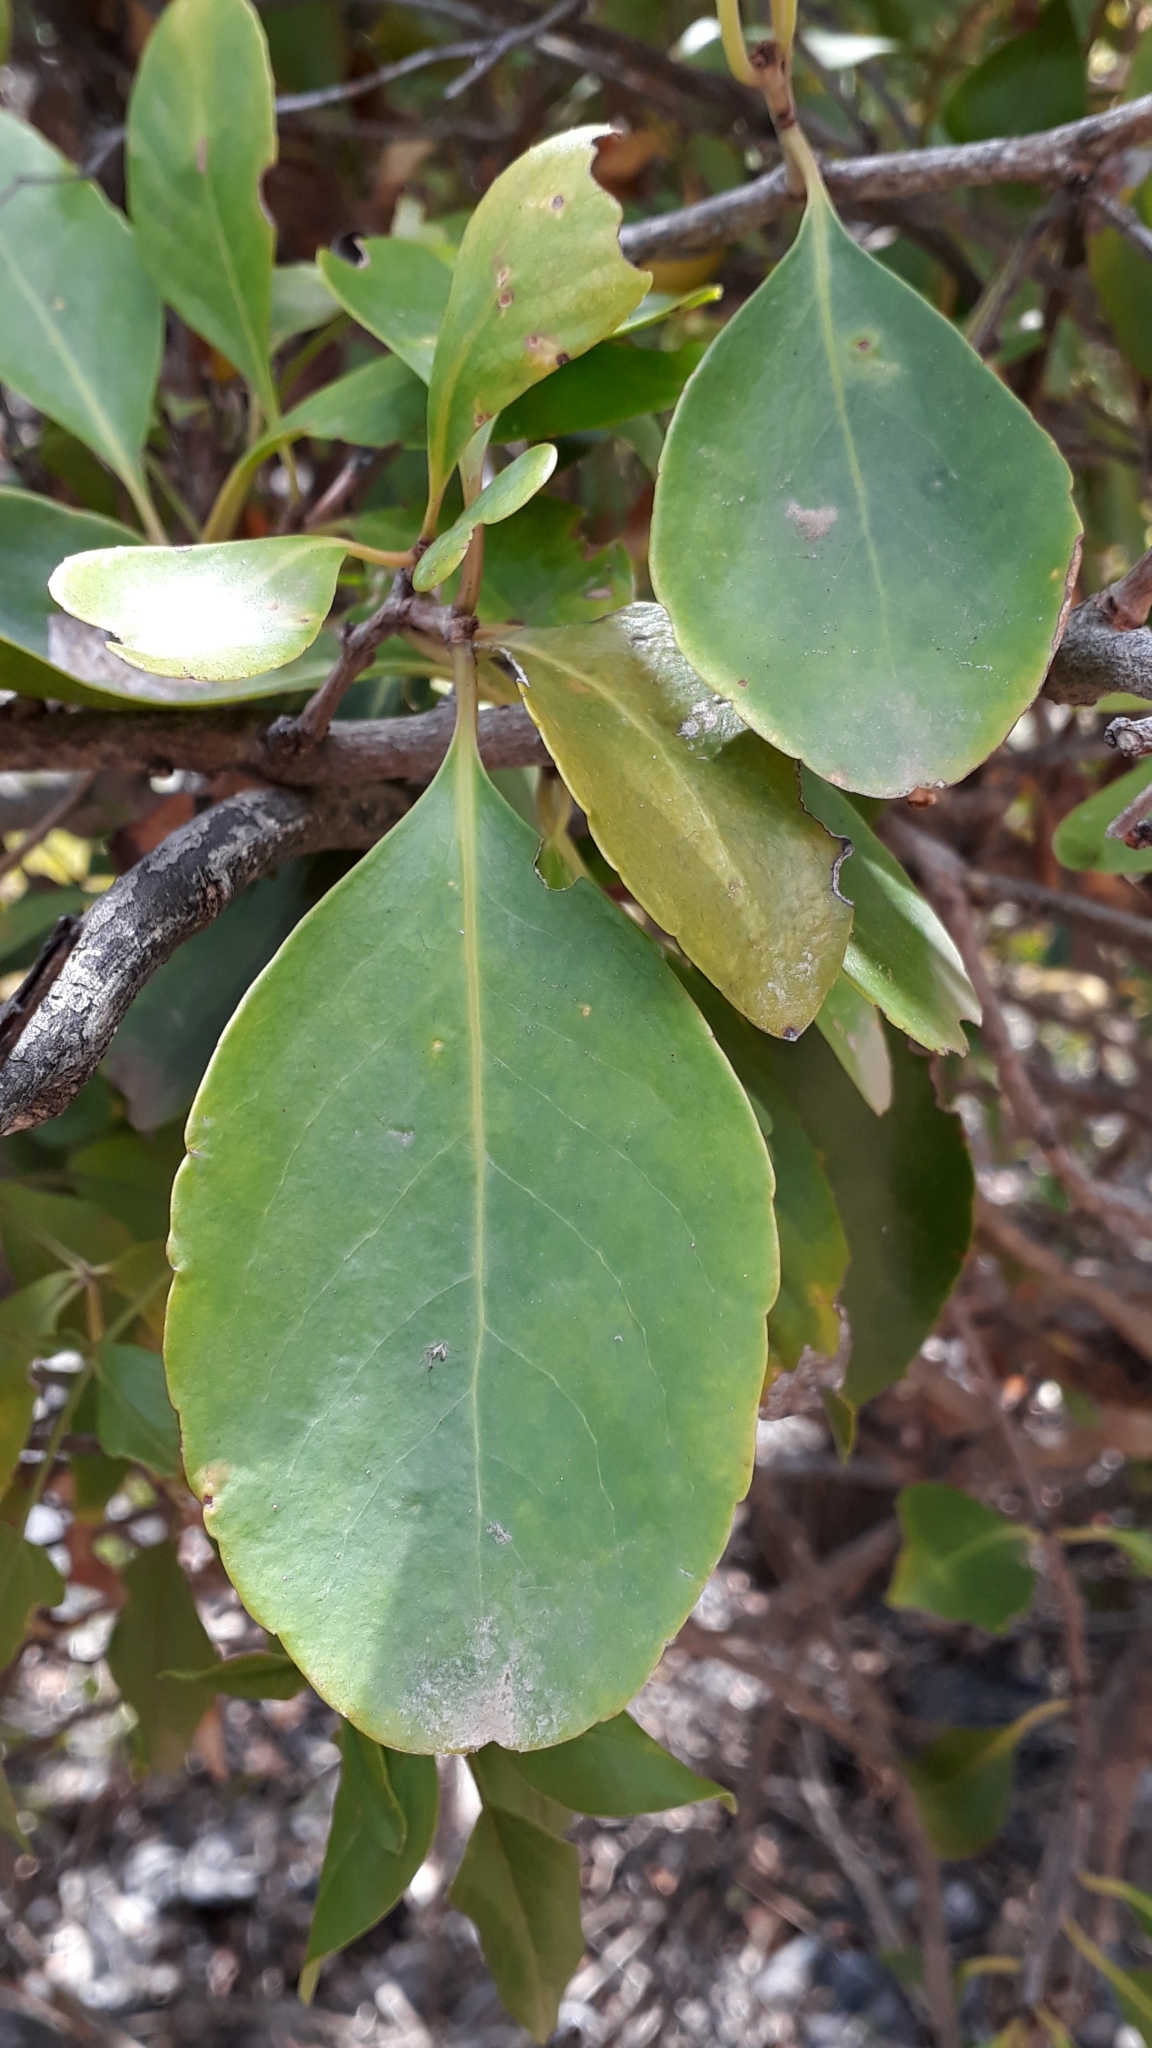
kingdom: Plantae
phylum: Tracheophyta
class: Magnoliopsida
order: Celastrales
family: Celastraceae
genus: Gymnosporia
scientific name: Gymnosporia cassinoides
